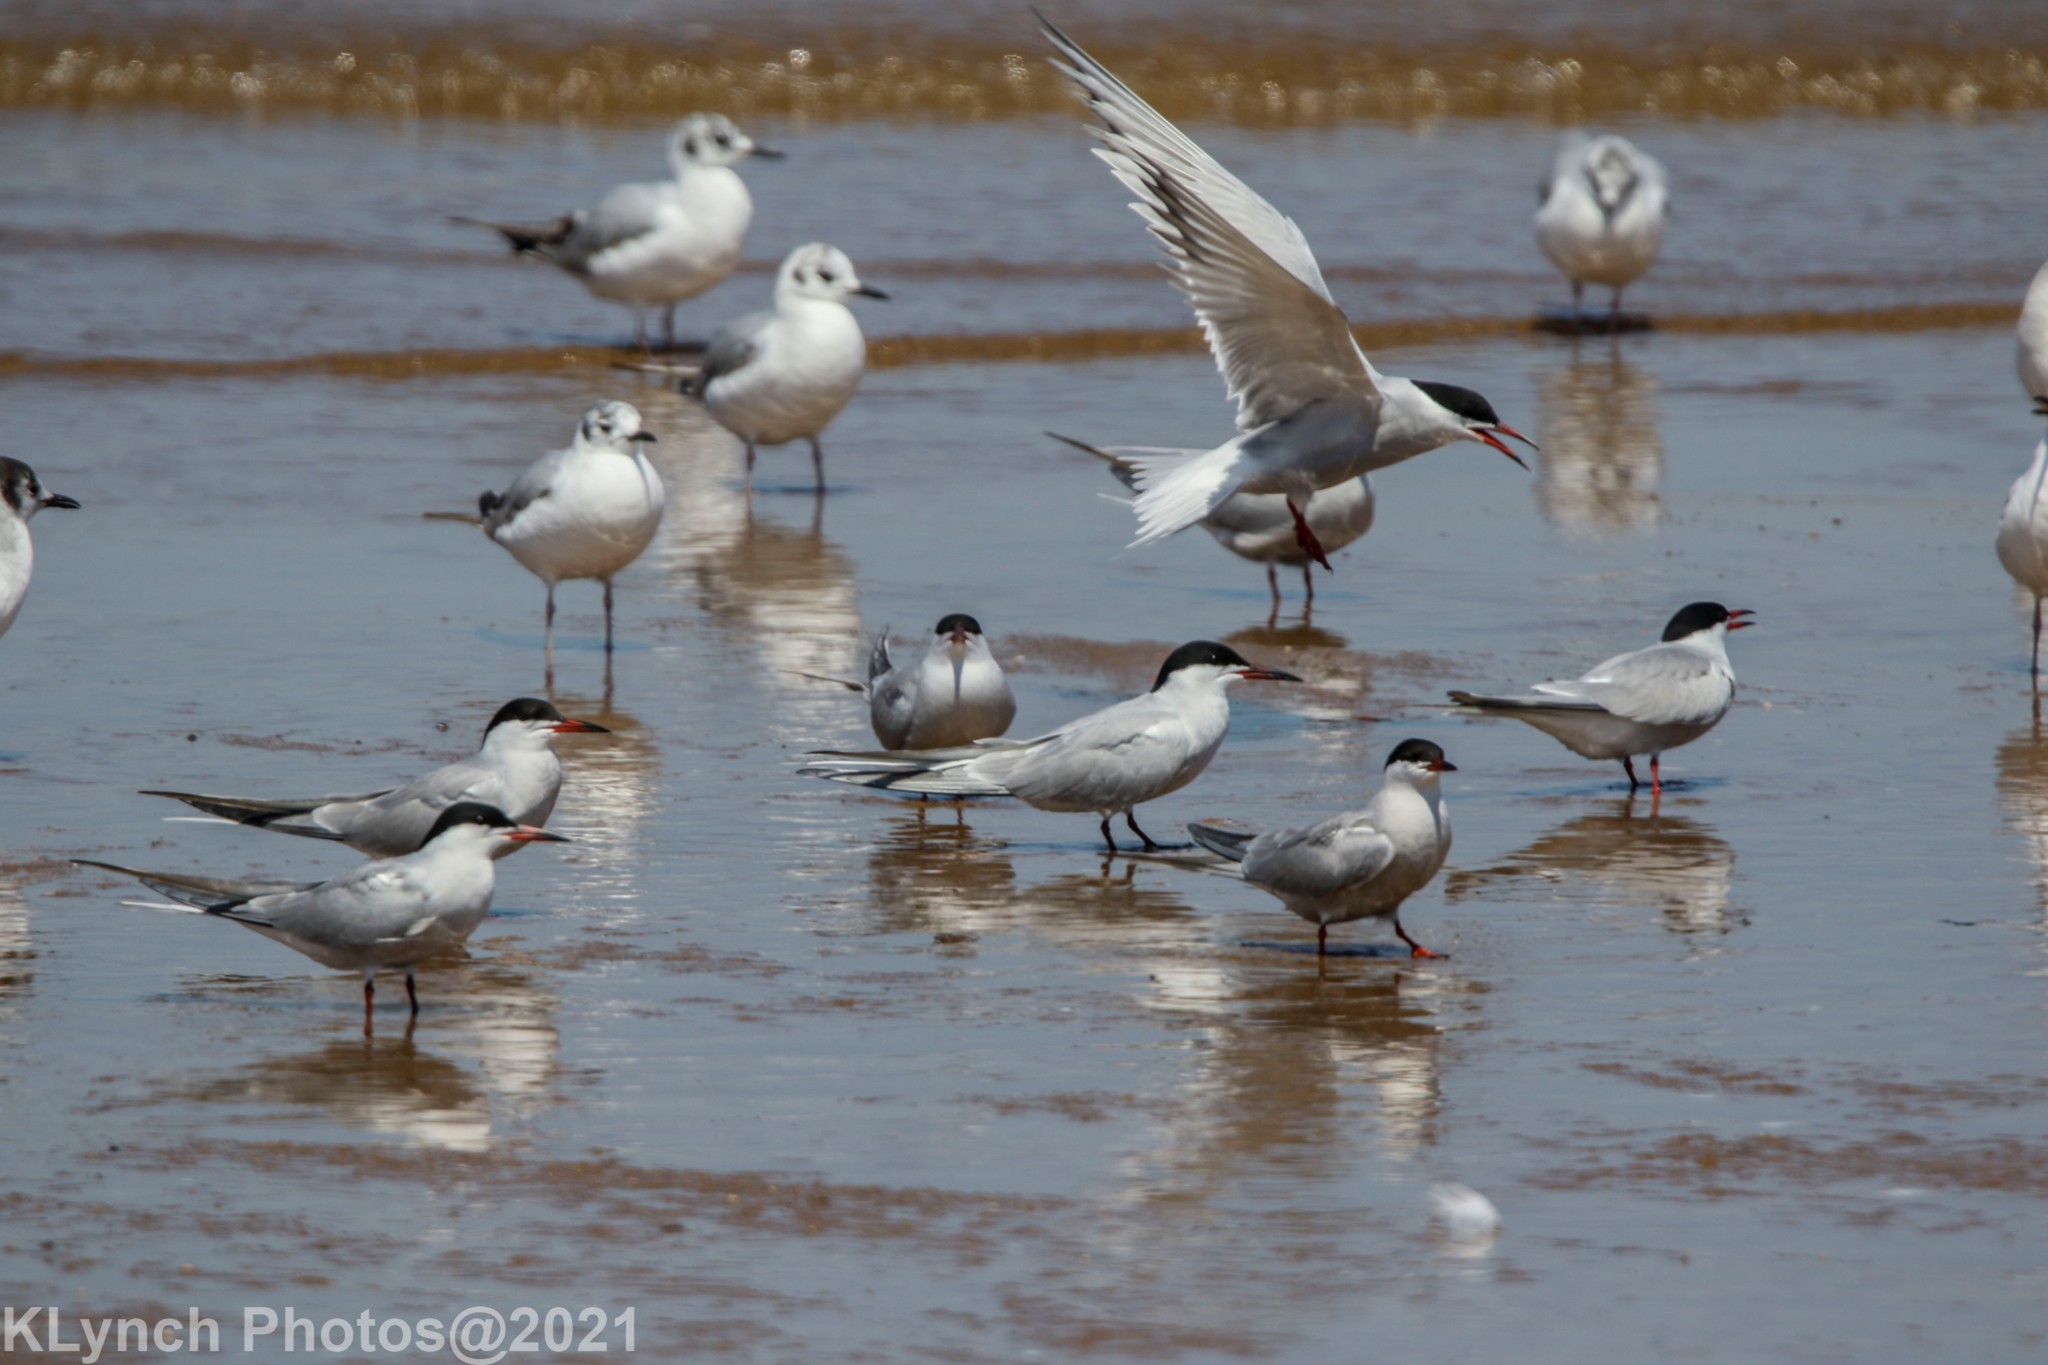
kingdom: Animalia
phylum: Chordata
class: Aves
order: Charadriiformes
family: Laridae
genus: Sterna
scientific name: Sterna hirundo
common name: Common tern
